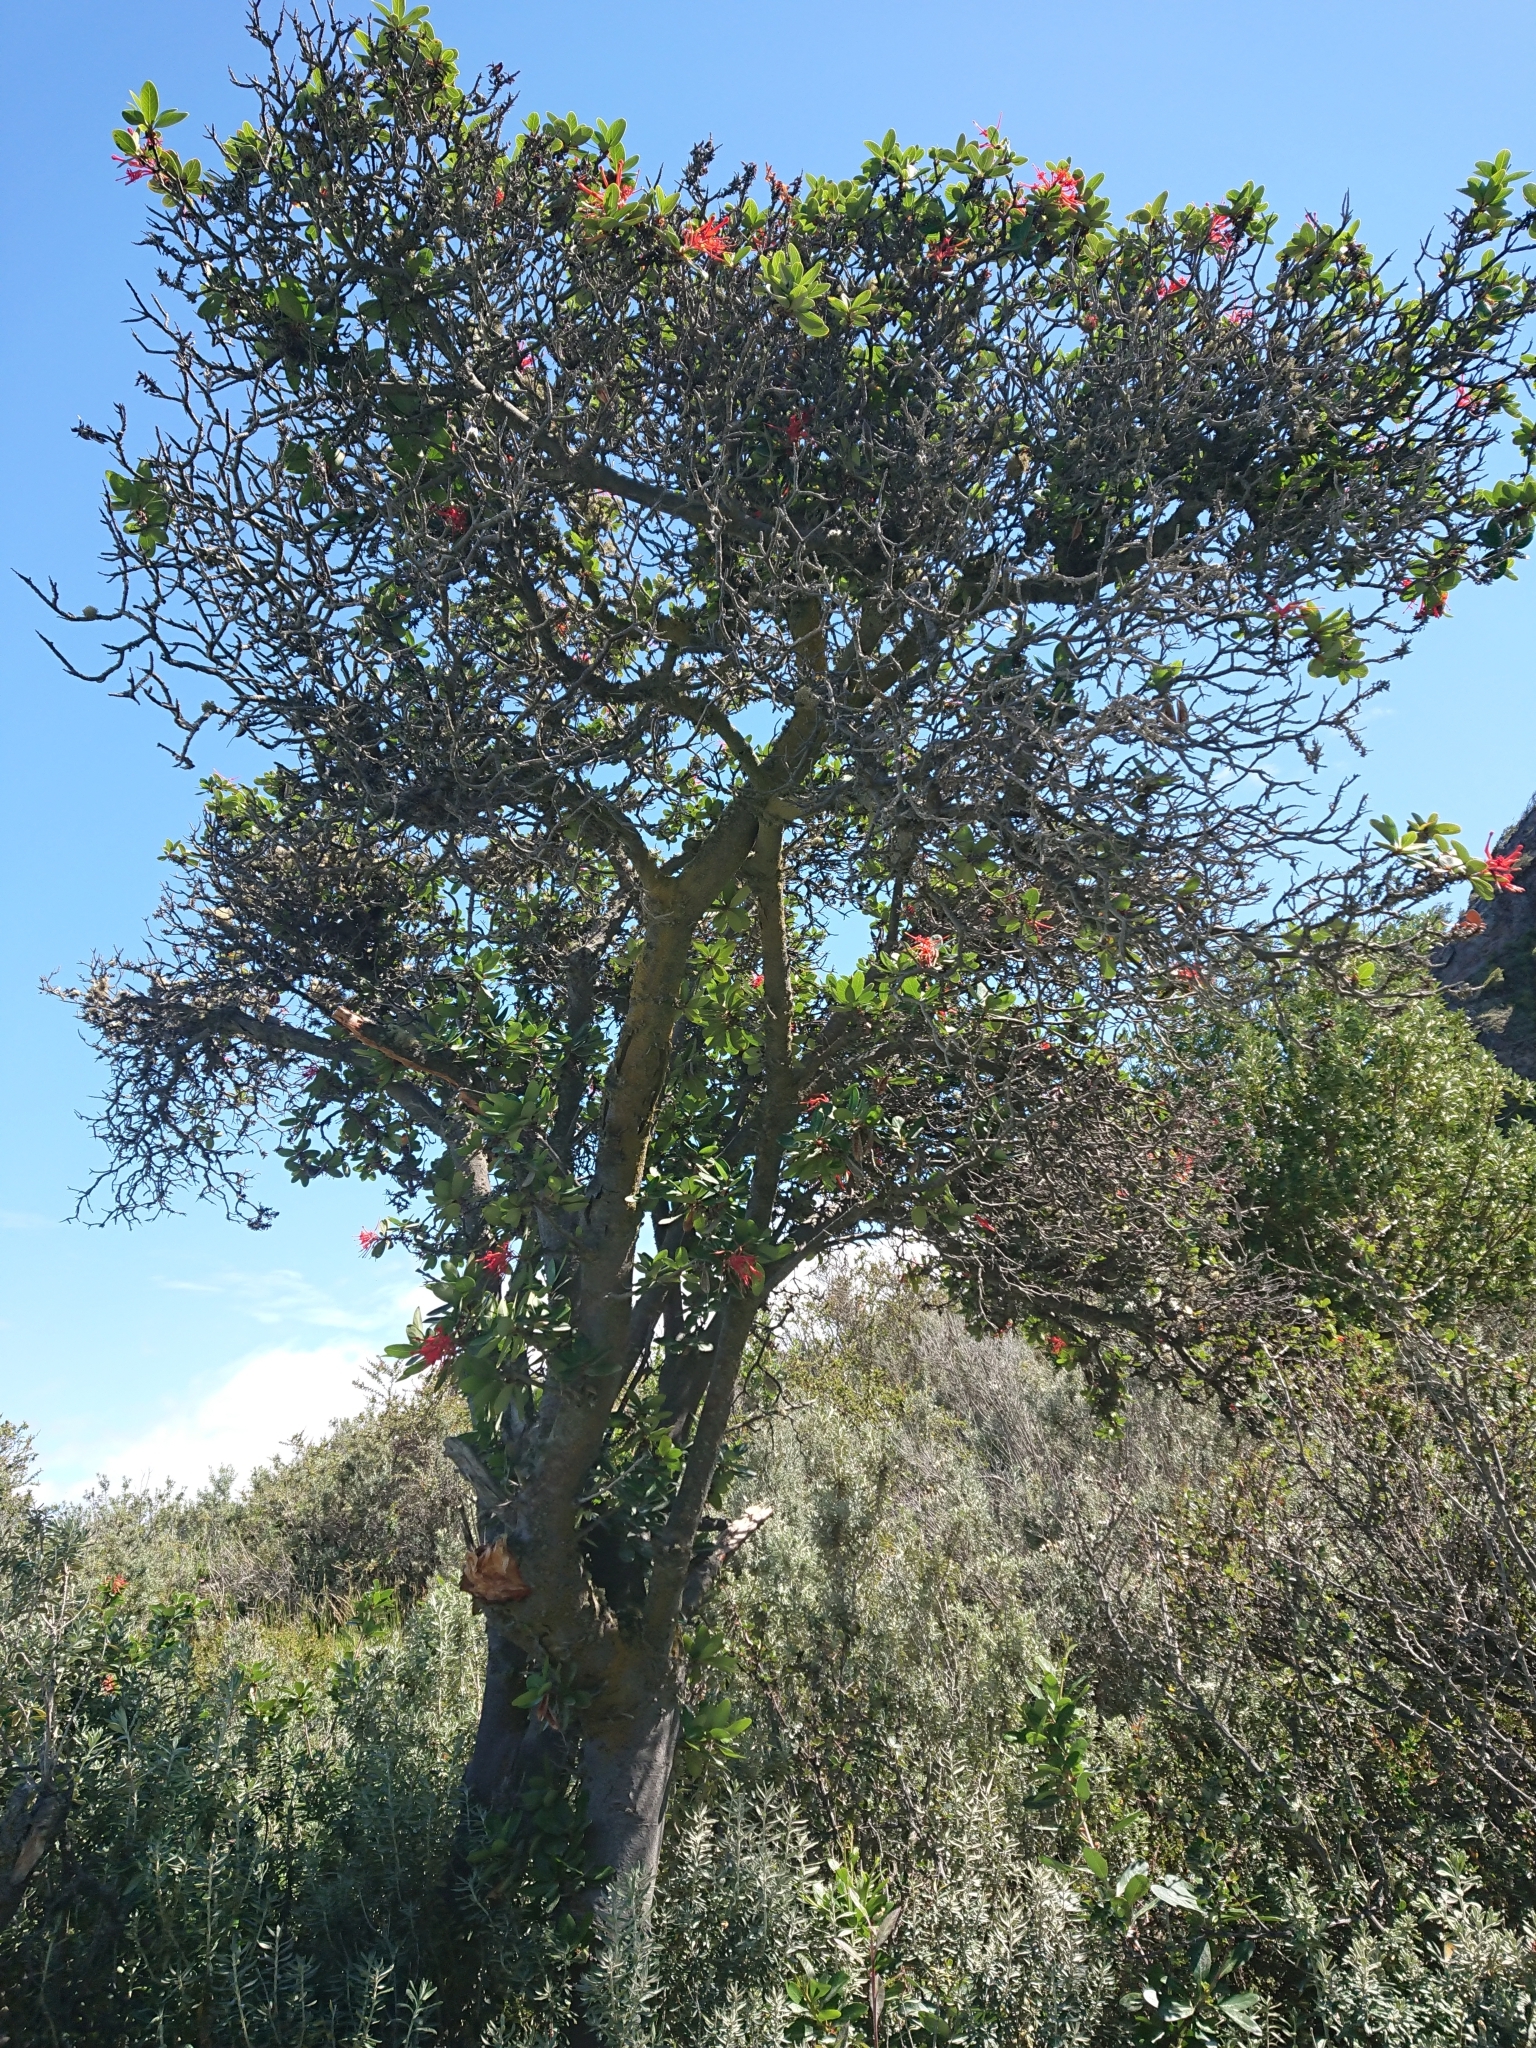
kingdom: Plantae
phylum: Tracheophyta
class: Magnoliopsida
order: Proteales
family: Proteaceae
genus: Embothrium
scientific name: Embothrium coccineum
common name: Chilean firebush
